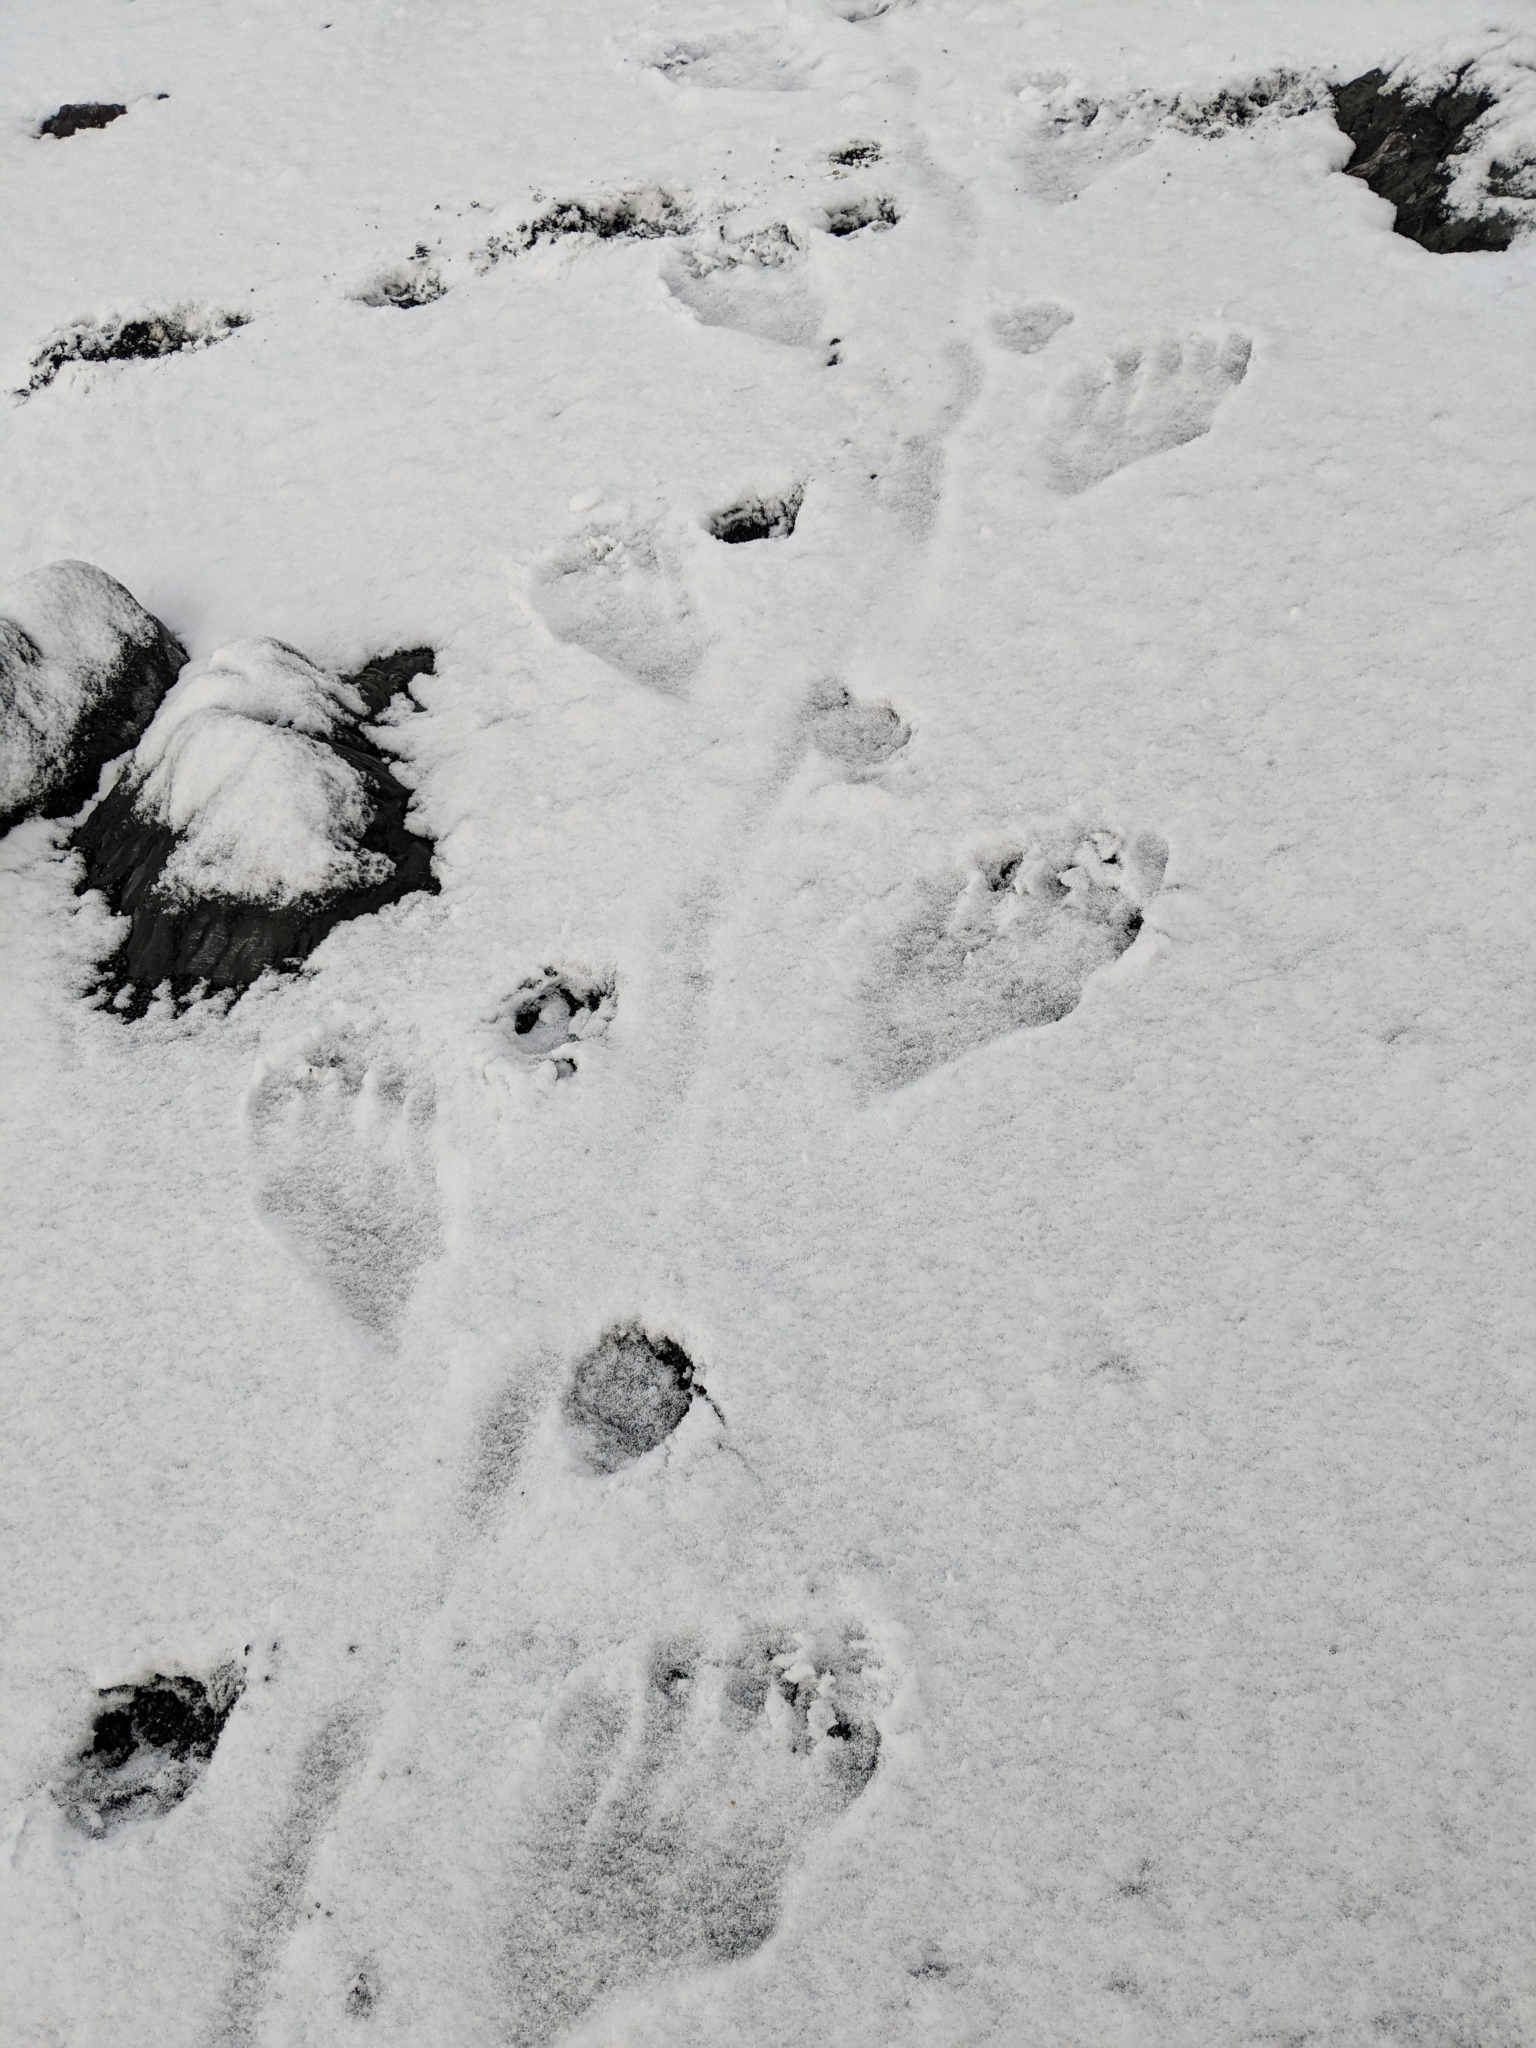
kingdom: Animalia
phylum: Chordata
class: Mammalia
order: Carnivora
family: Mustelidae
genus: Enhydra
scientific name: Enhydra lutris
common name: Sea otter
